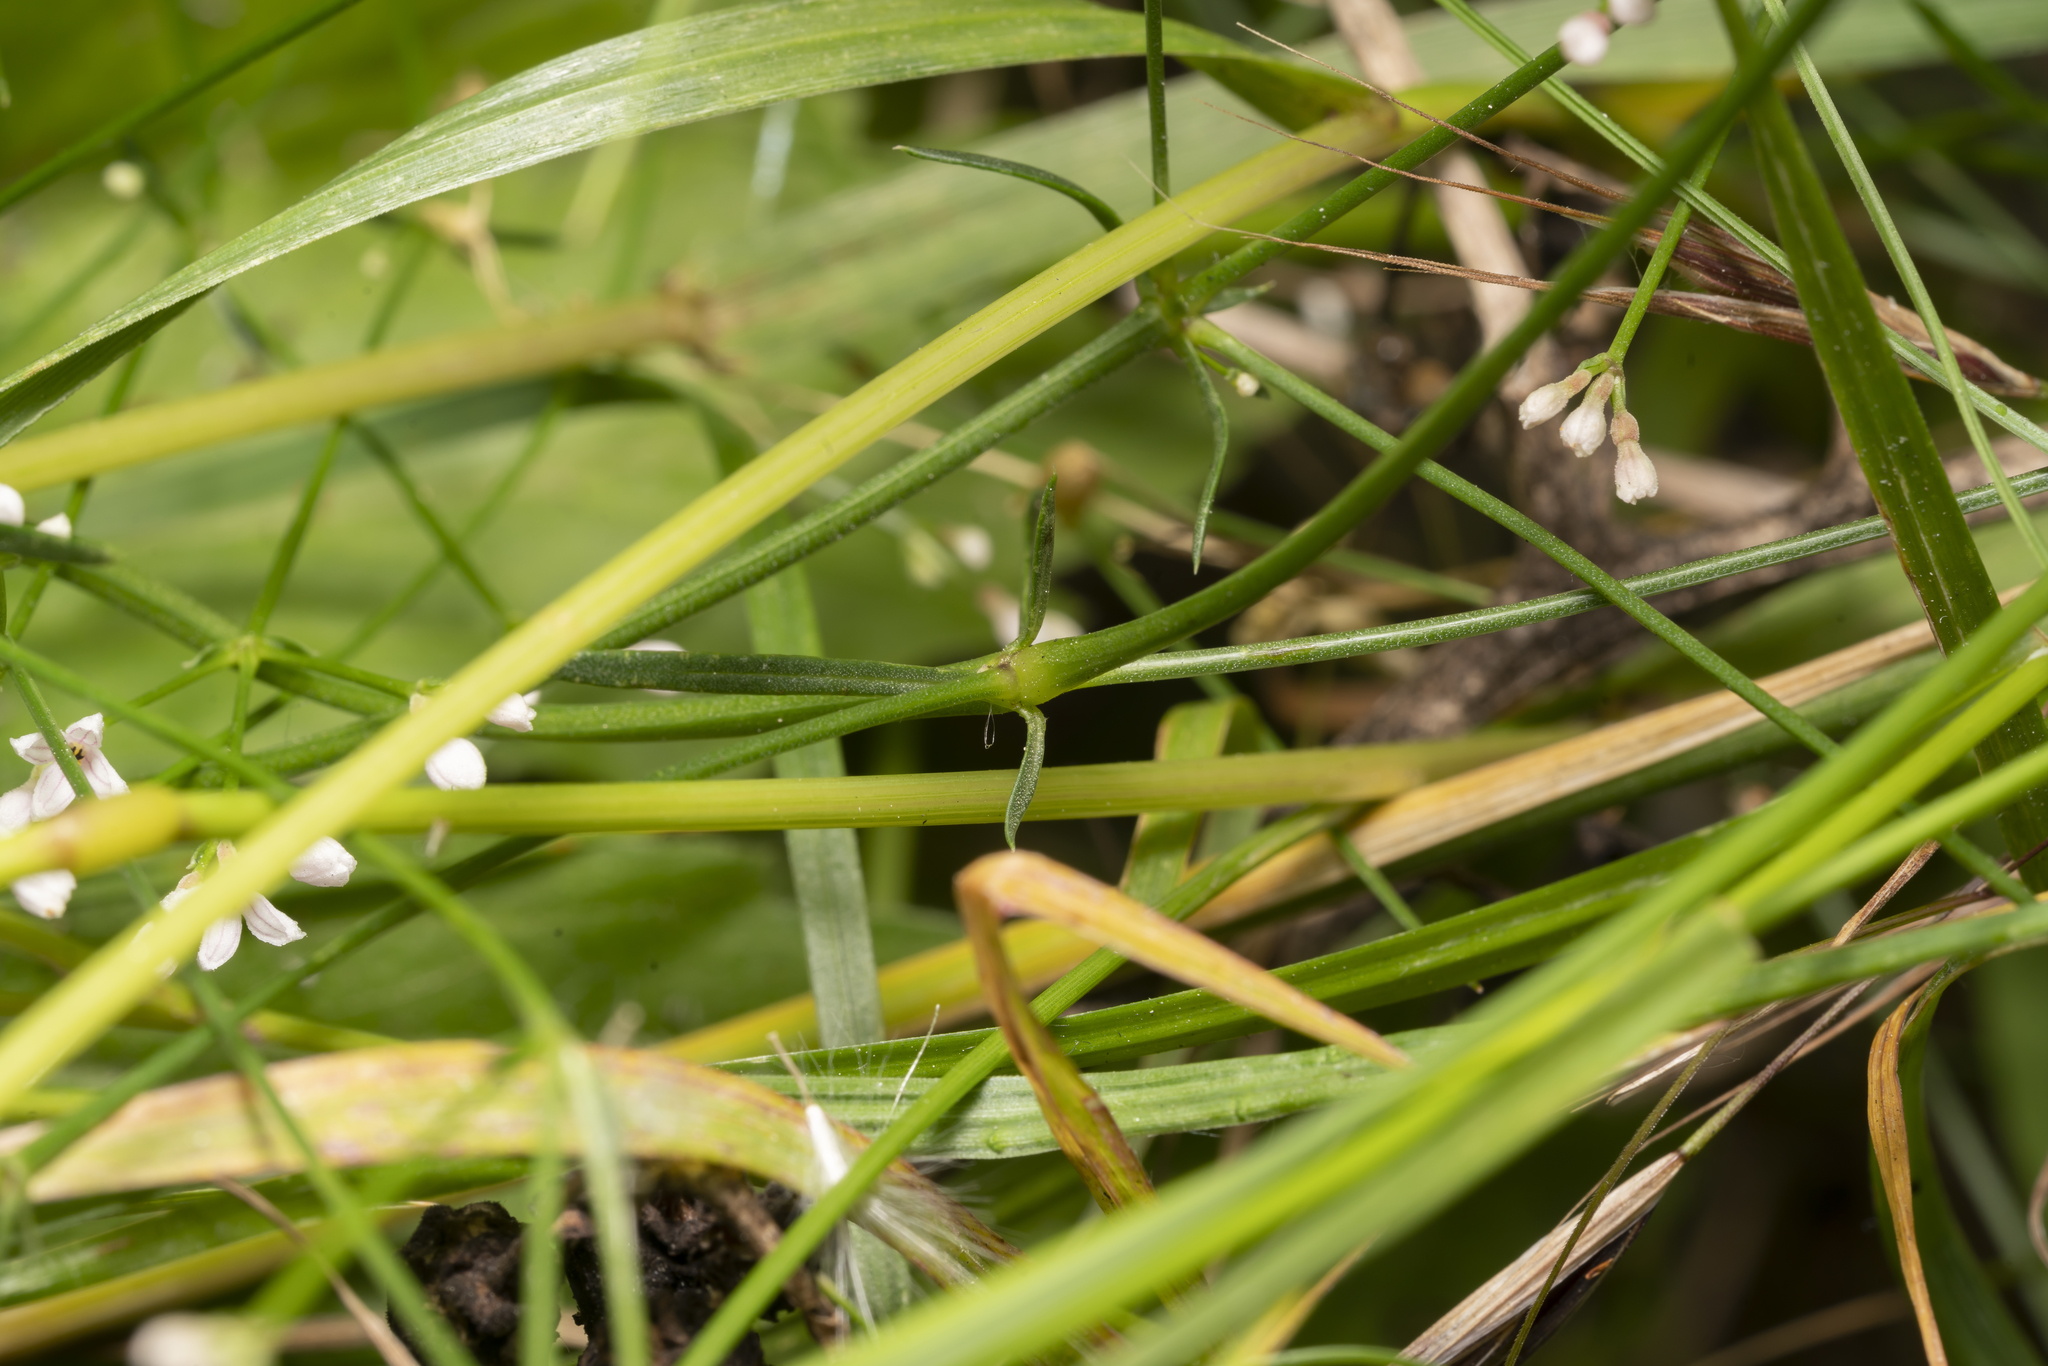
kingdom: Plantae
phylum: Tracheophyta
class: Magnoliopsida
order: Gentianales
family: Rubiaceae
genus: Cynanchica
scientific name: Cynanchica pyrenaica
